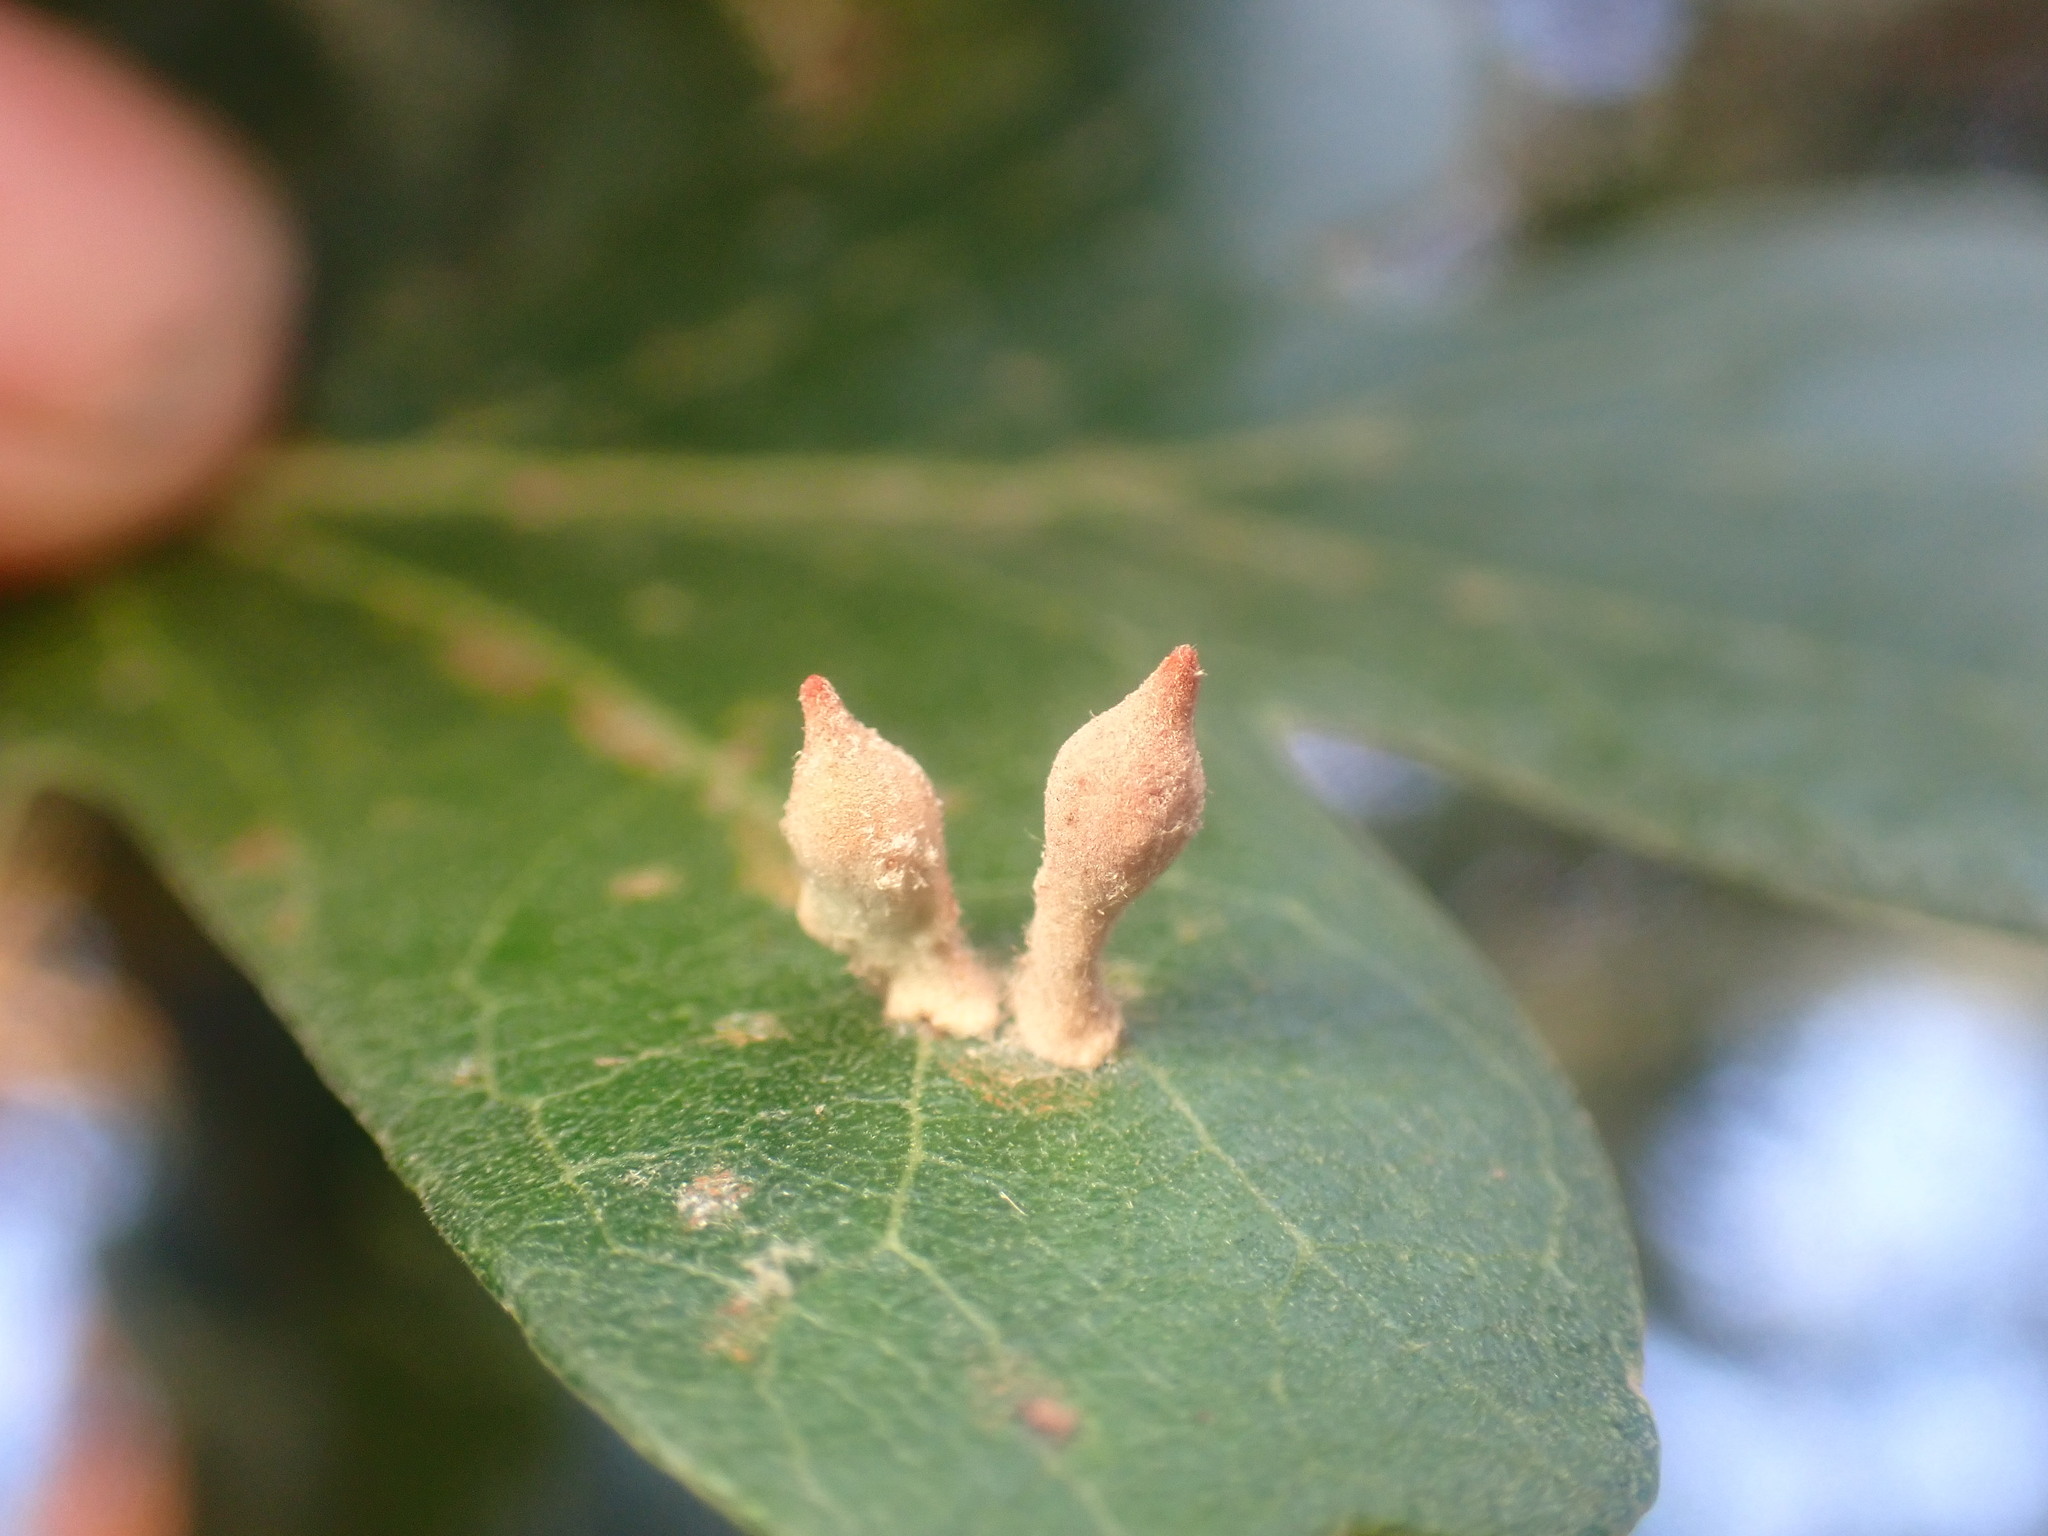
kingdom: Animalia
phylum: Arthropoda
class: Insecta
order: Hymenoptera
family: Cynipidae
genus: Atrusca
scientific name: Atrusca
